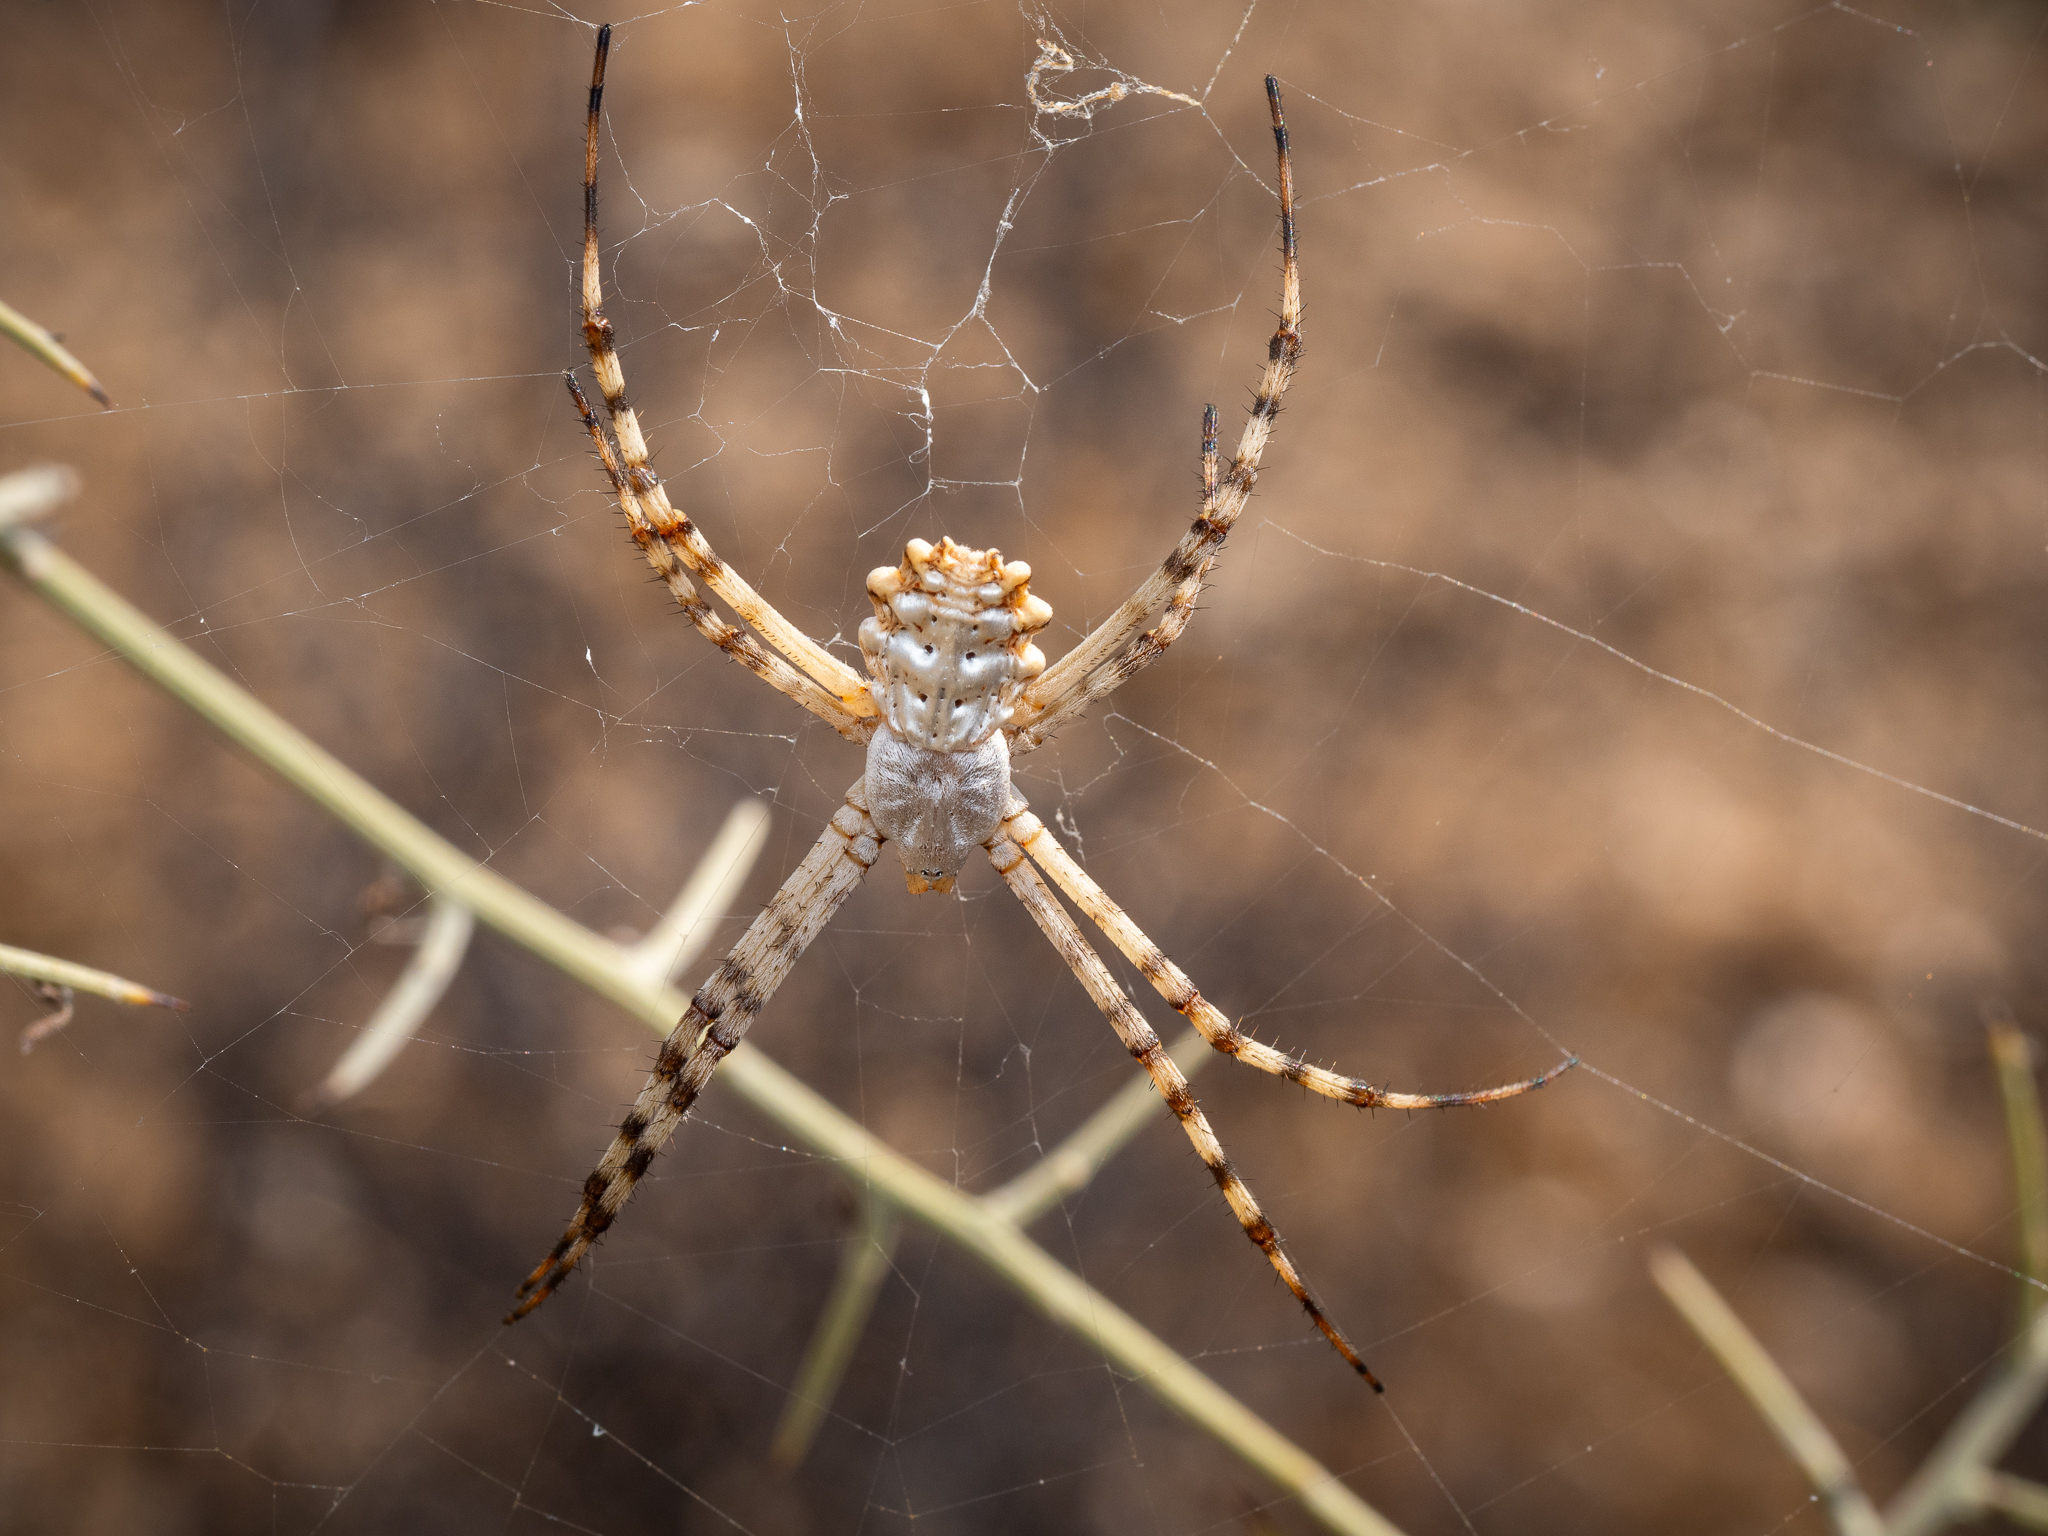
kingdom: Animalia
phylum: Arthropoda
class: Arachnida
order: Araneae
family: Araneidae
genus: Argiope
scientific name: Argiope lobata
